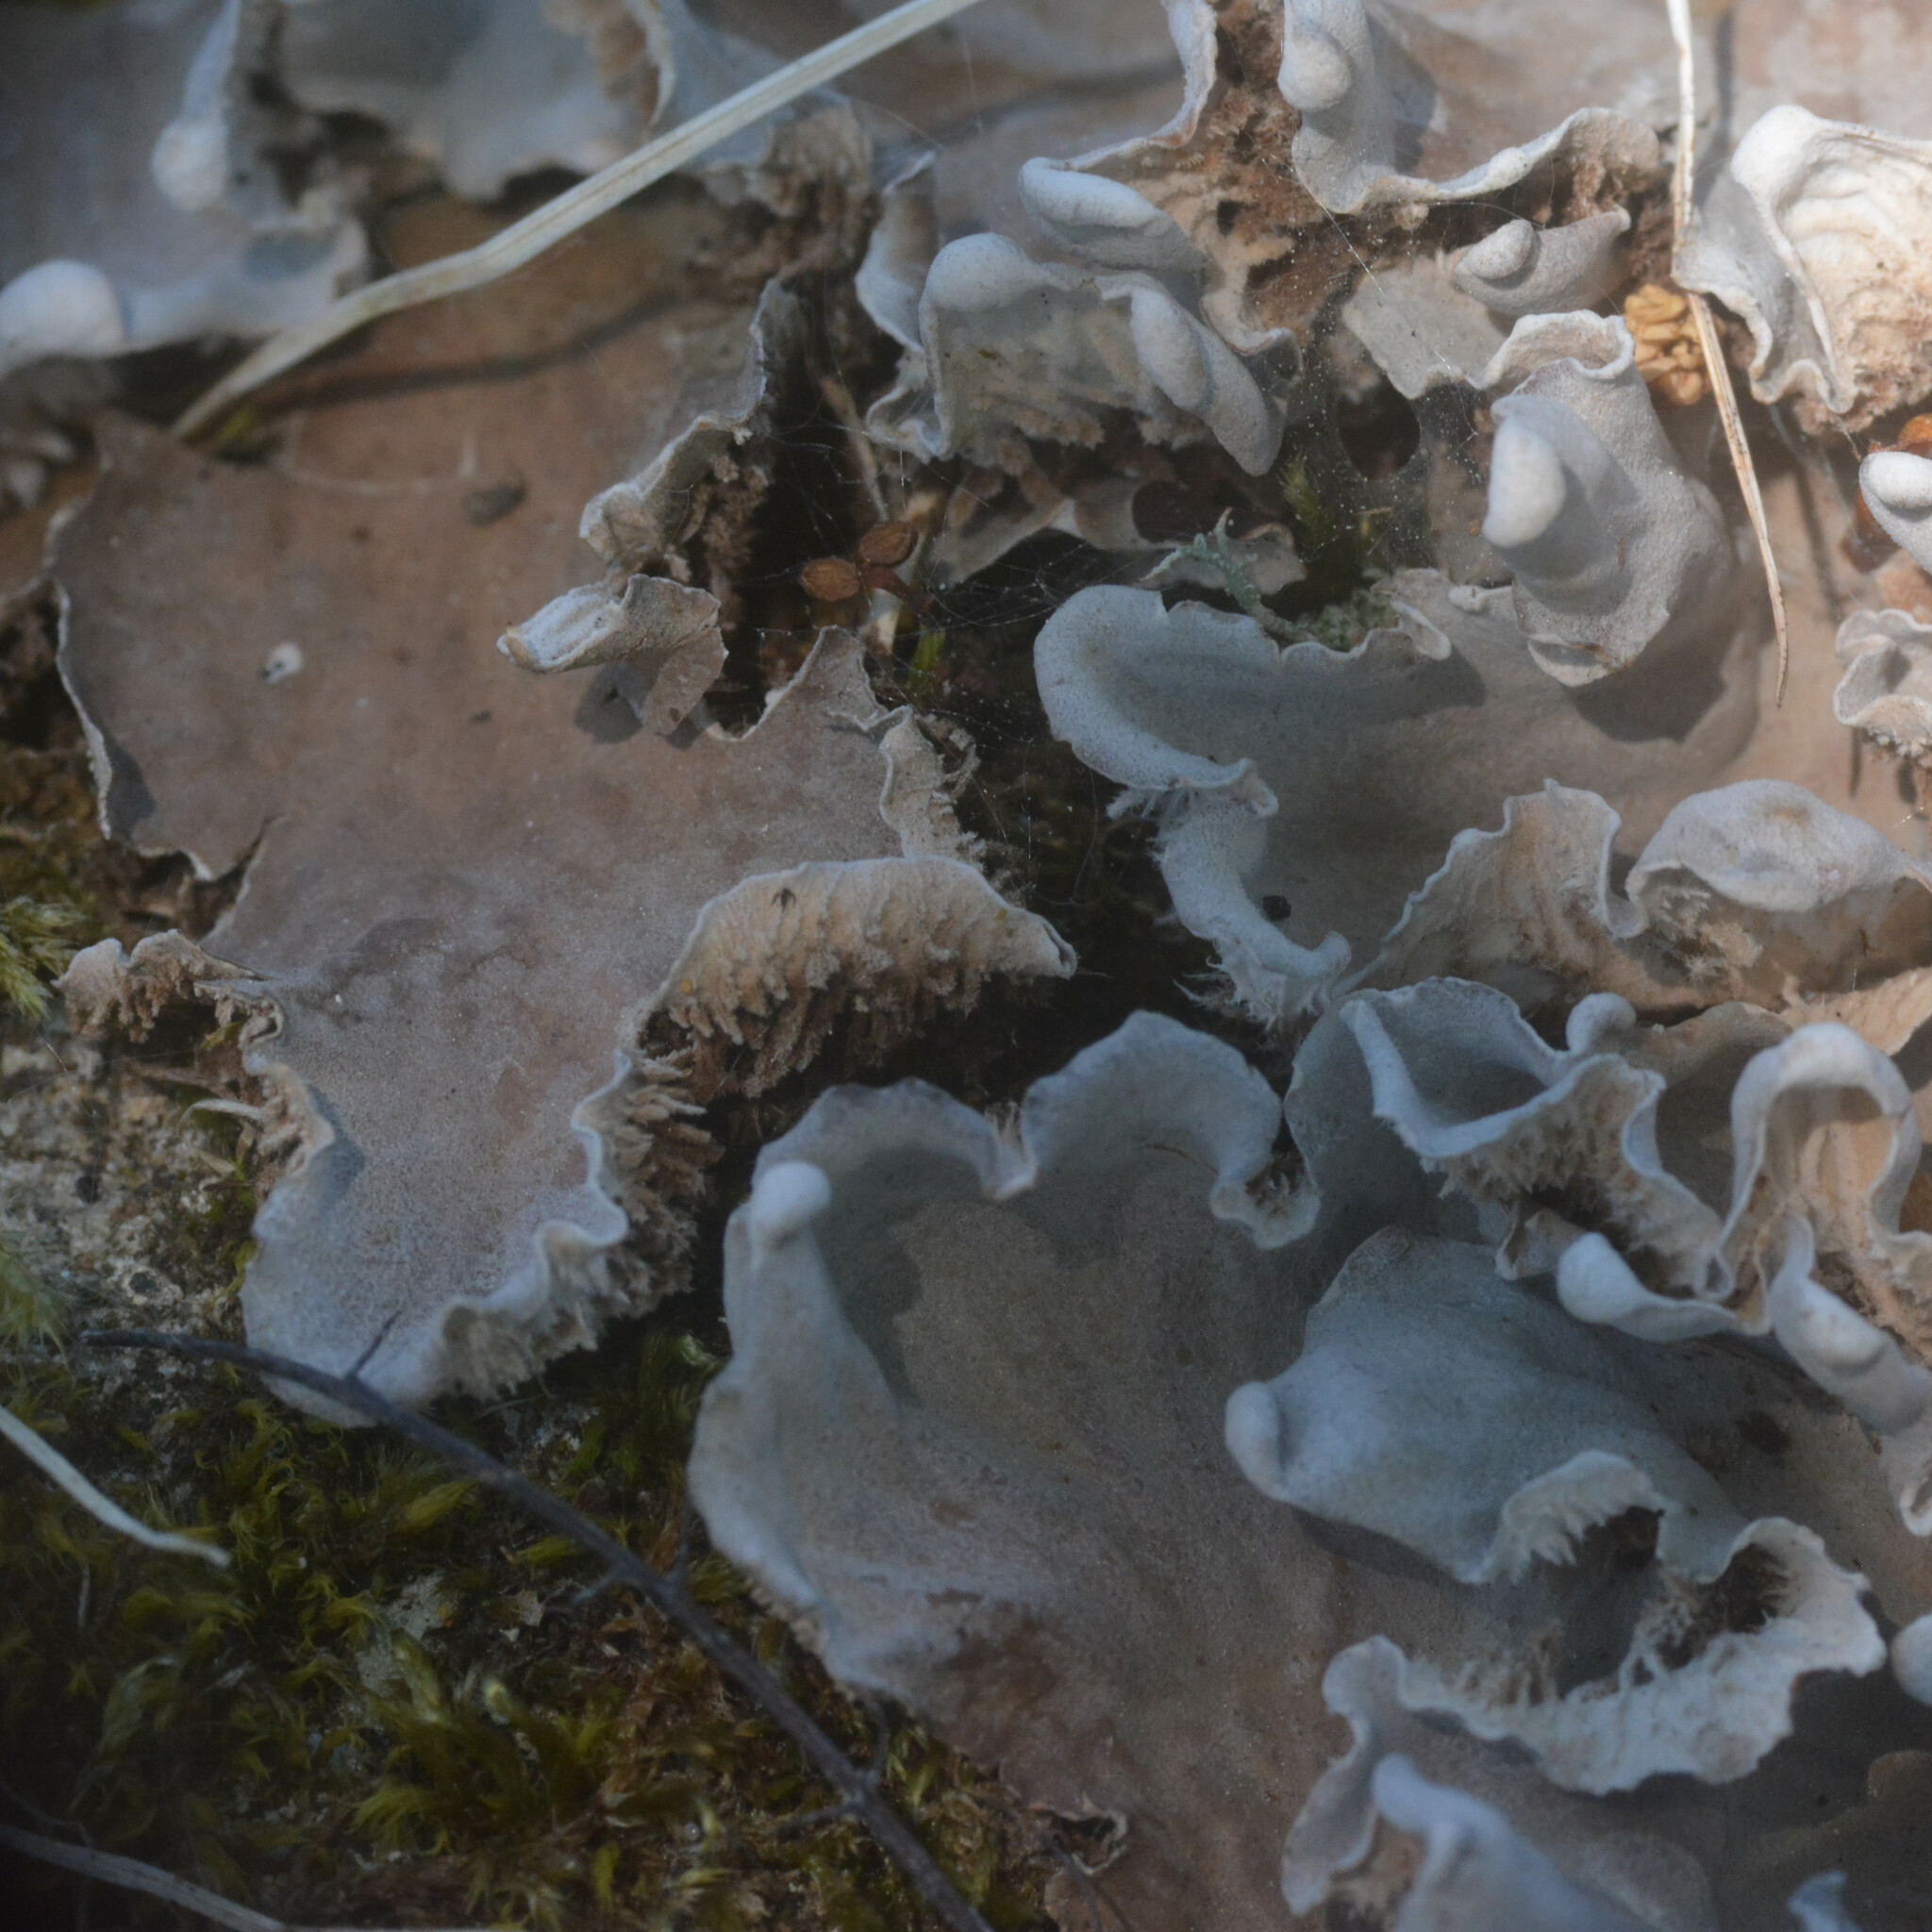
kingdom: Fungi
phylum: Ascomycota
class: Lecanoromycetes
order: Peltigerales
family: Peltigeraceae
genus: Peltigera
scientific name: Peltigera canina
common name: Dog pelt lichen
